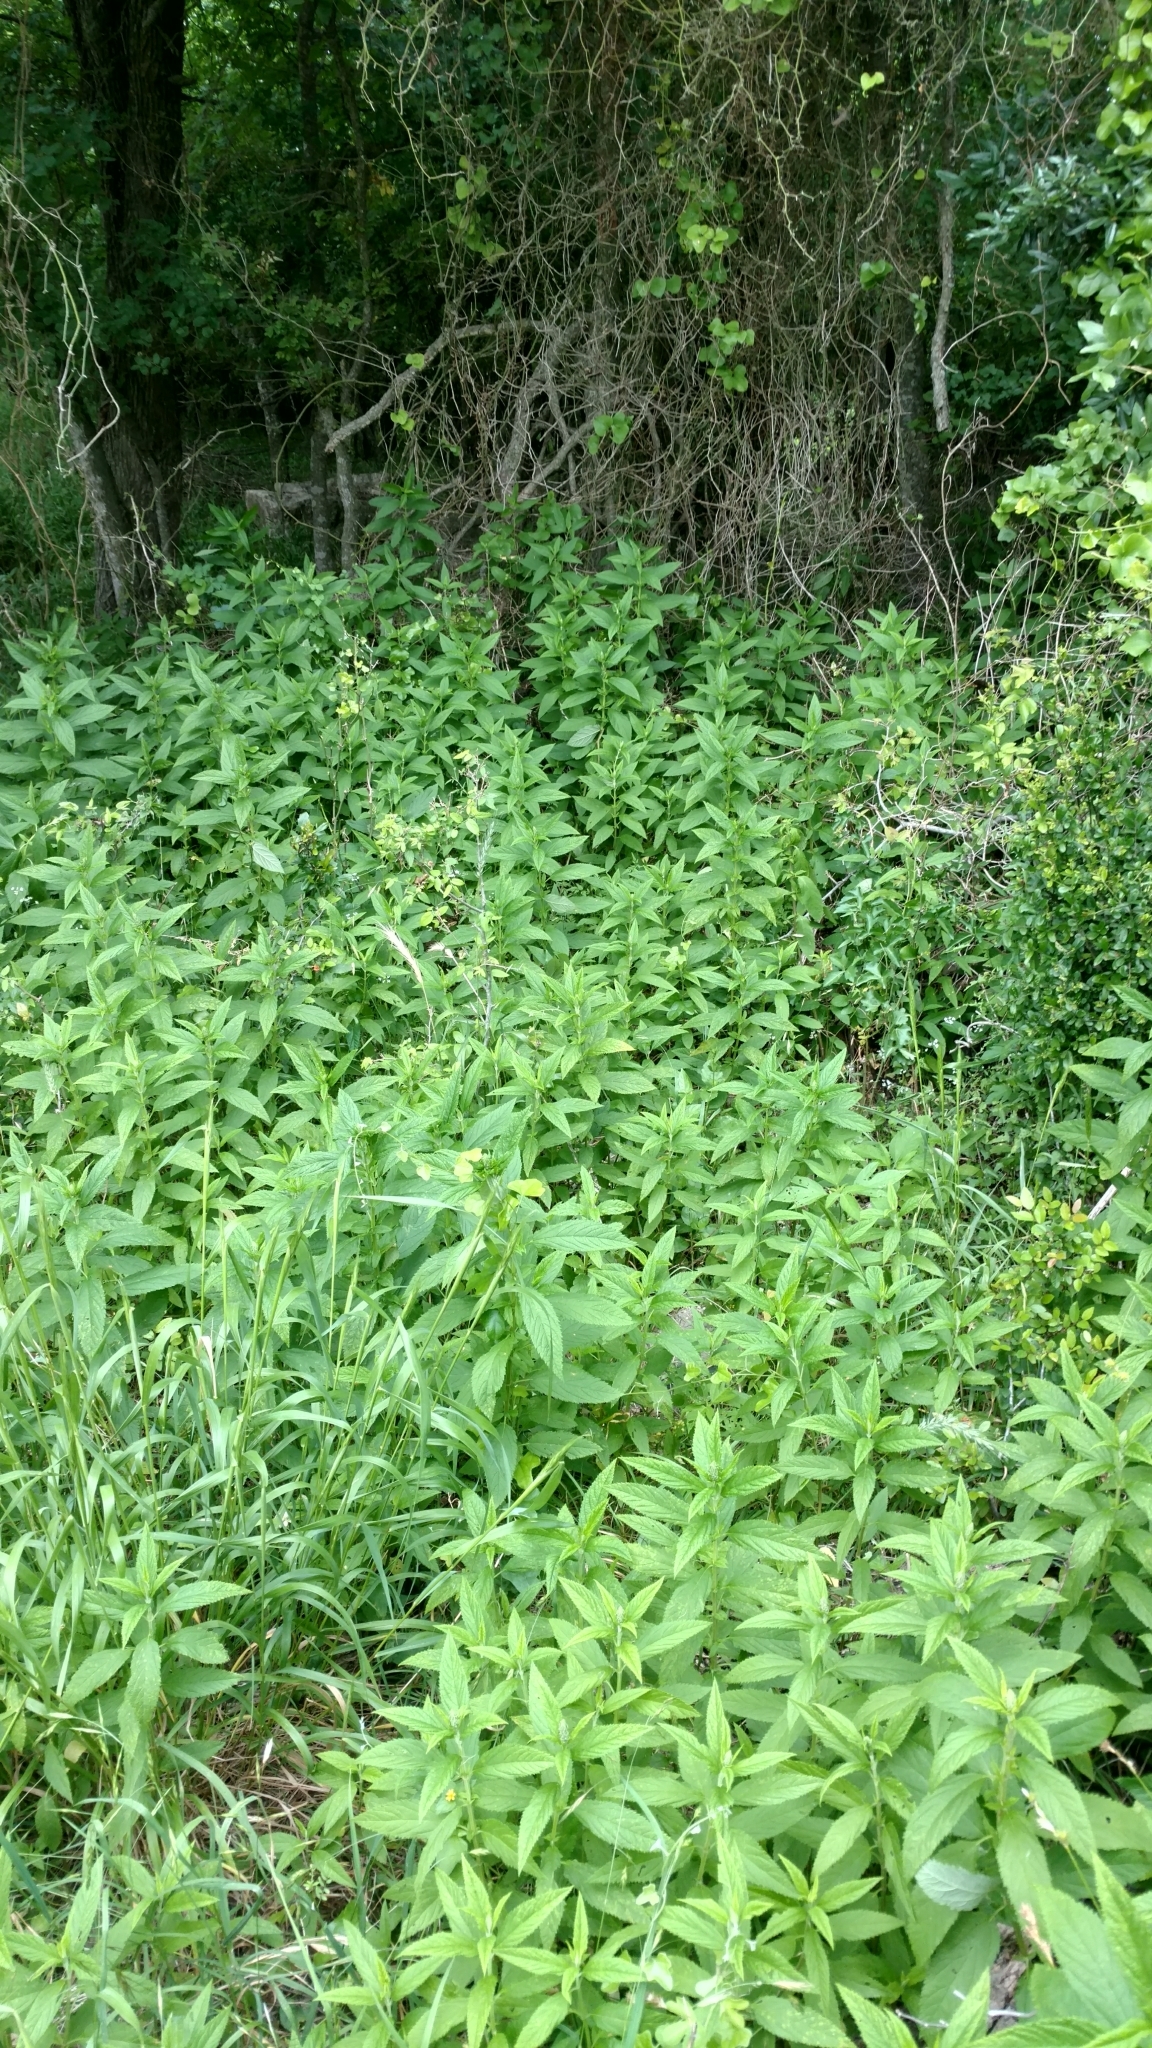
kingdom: Plantae
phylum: Tracheophyta
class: Magnoliopsida
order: Lamiales
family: Lamiaceae
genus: Teucrium
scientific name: Teucrium canadense
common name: American germander
